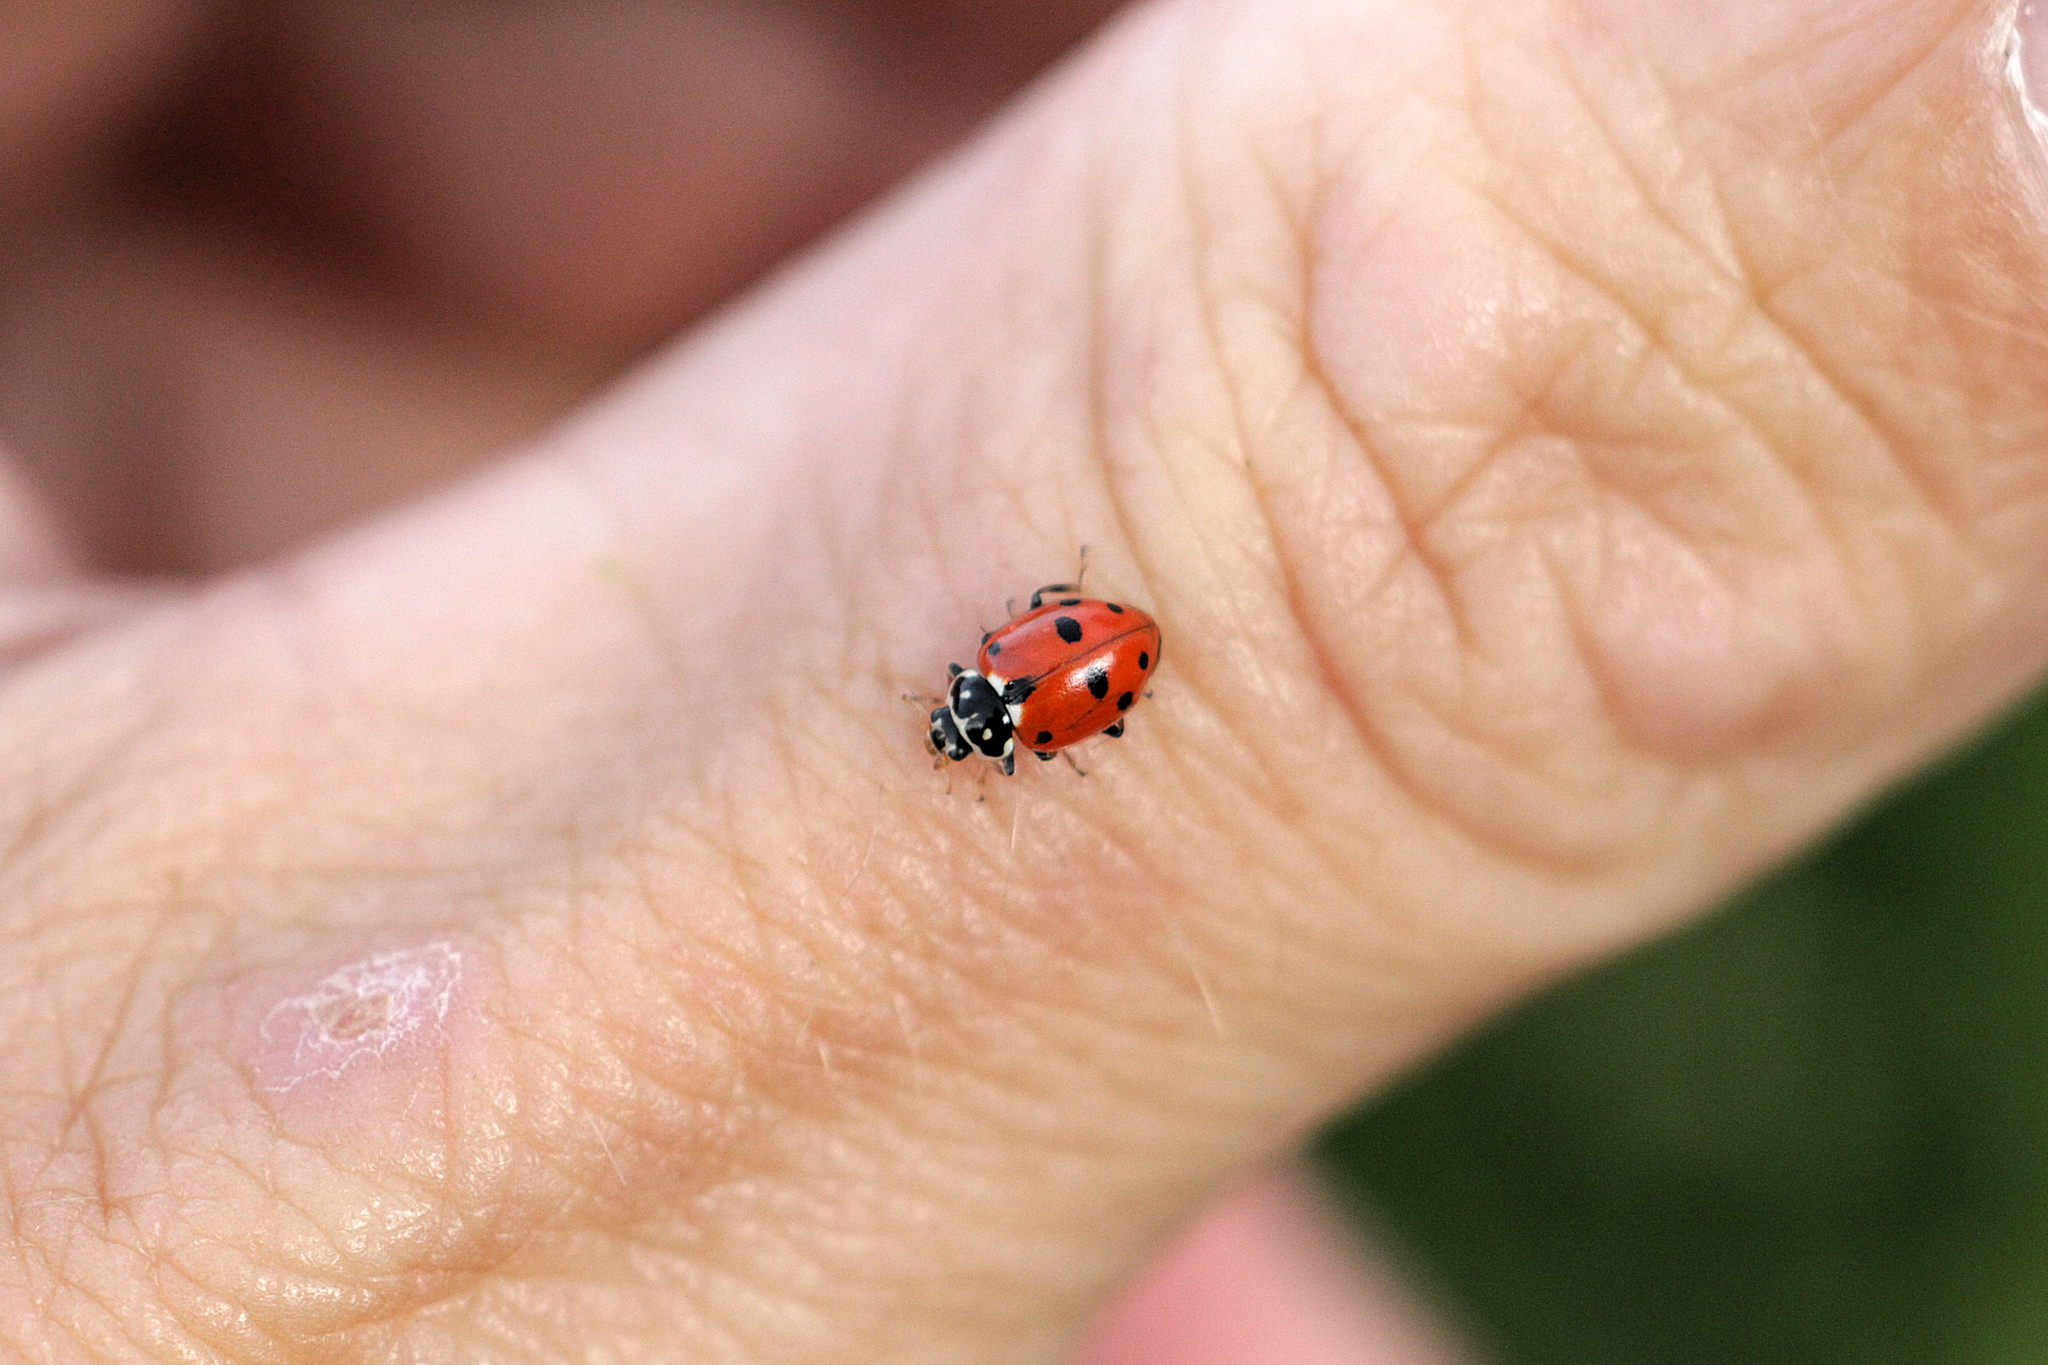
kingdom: Animalia
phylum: Arthropoda
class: Insecta
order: Coleoptera
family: Coccinellidae
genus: Hippodamia
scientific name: Hippodamia variegata
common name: Ladybird beetle
